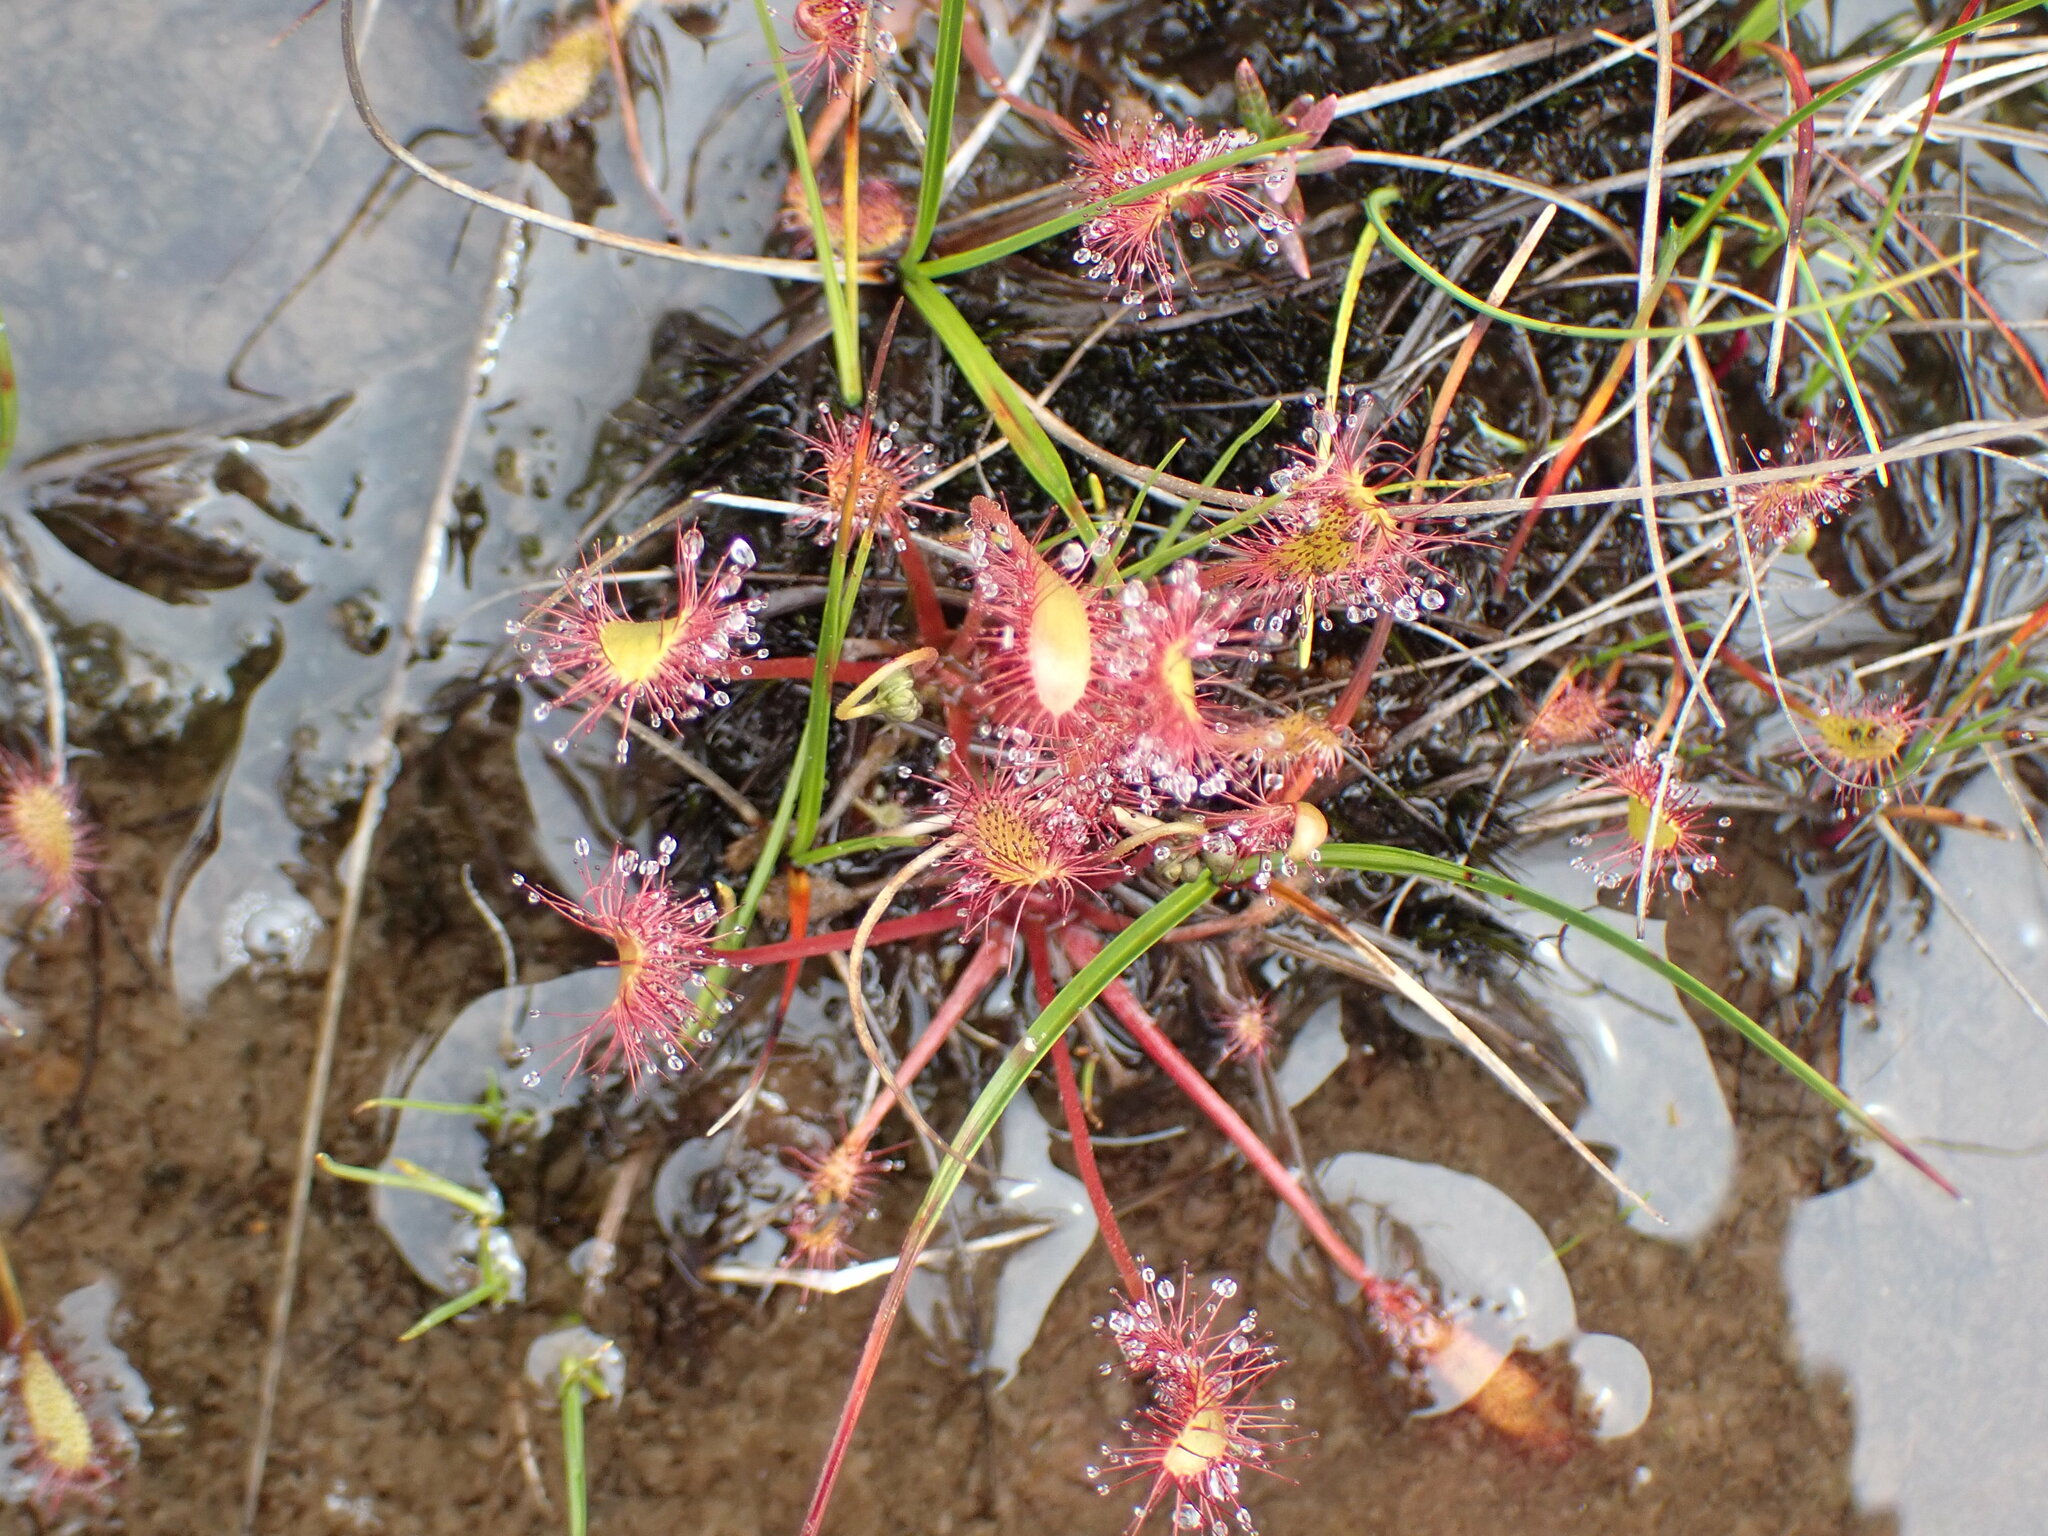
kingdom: Plantae
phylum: Tracheophyta
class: Magnoliopsida
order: Caryophyllales
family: Droseraceae
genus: Drosera
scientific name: Drosera anglica
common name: Great sundew
